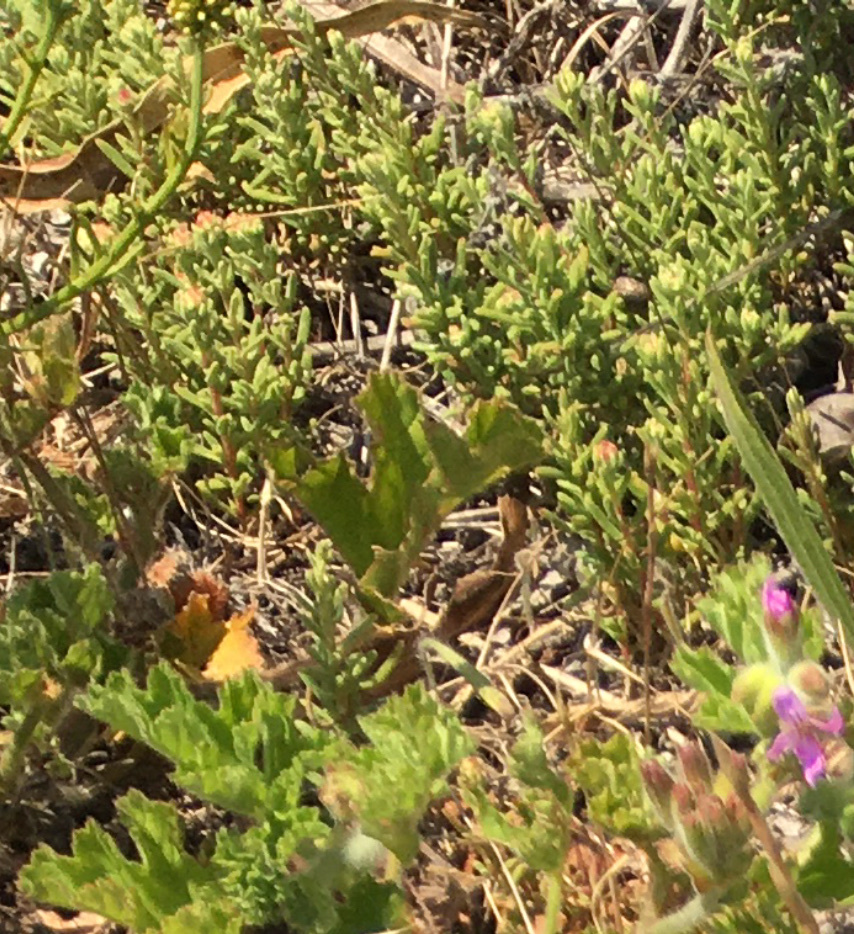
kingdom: Plantae
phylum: Tracheophyta
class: Magnoliopsida
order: Caryophyllales
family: Aizoaceae
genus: Tetragonia
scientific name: Tetragonia fruticosa
